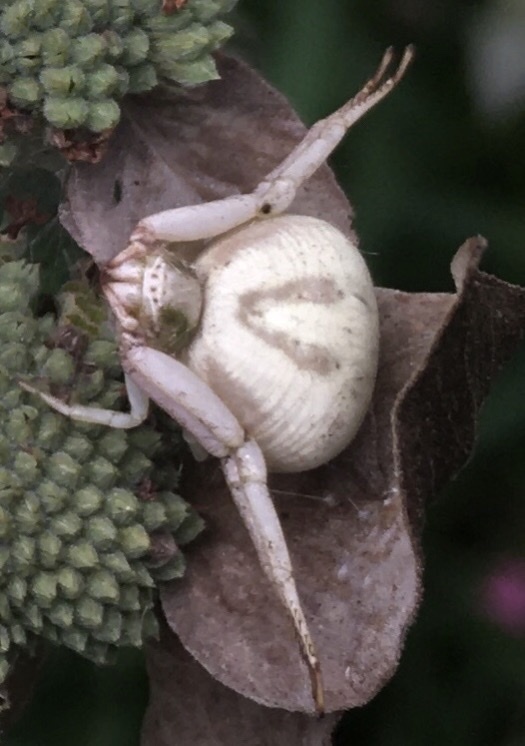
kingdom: Animalia
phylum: Arthropoda
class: Arachnida
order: Araneae
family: Thomisidae
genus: Misumenoides
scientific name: Misumenoides formosipes
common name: White-banded crab spider
